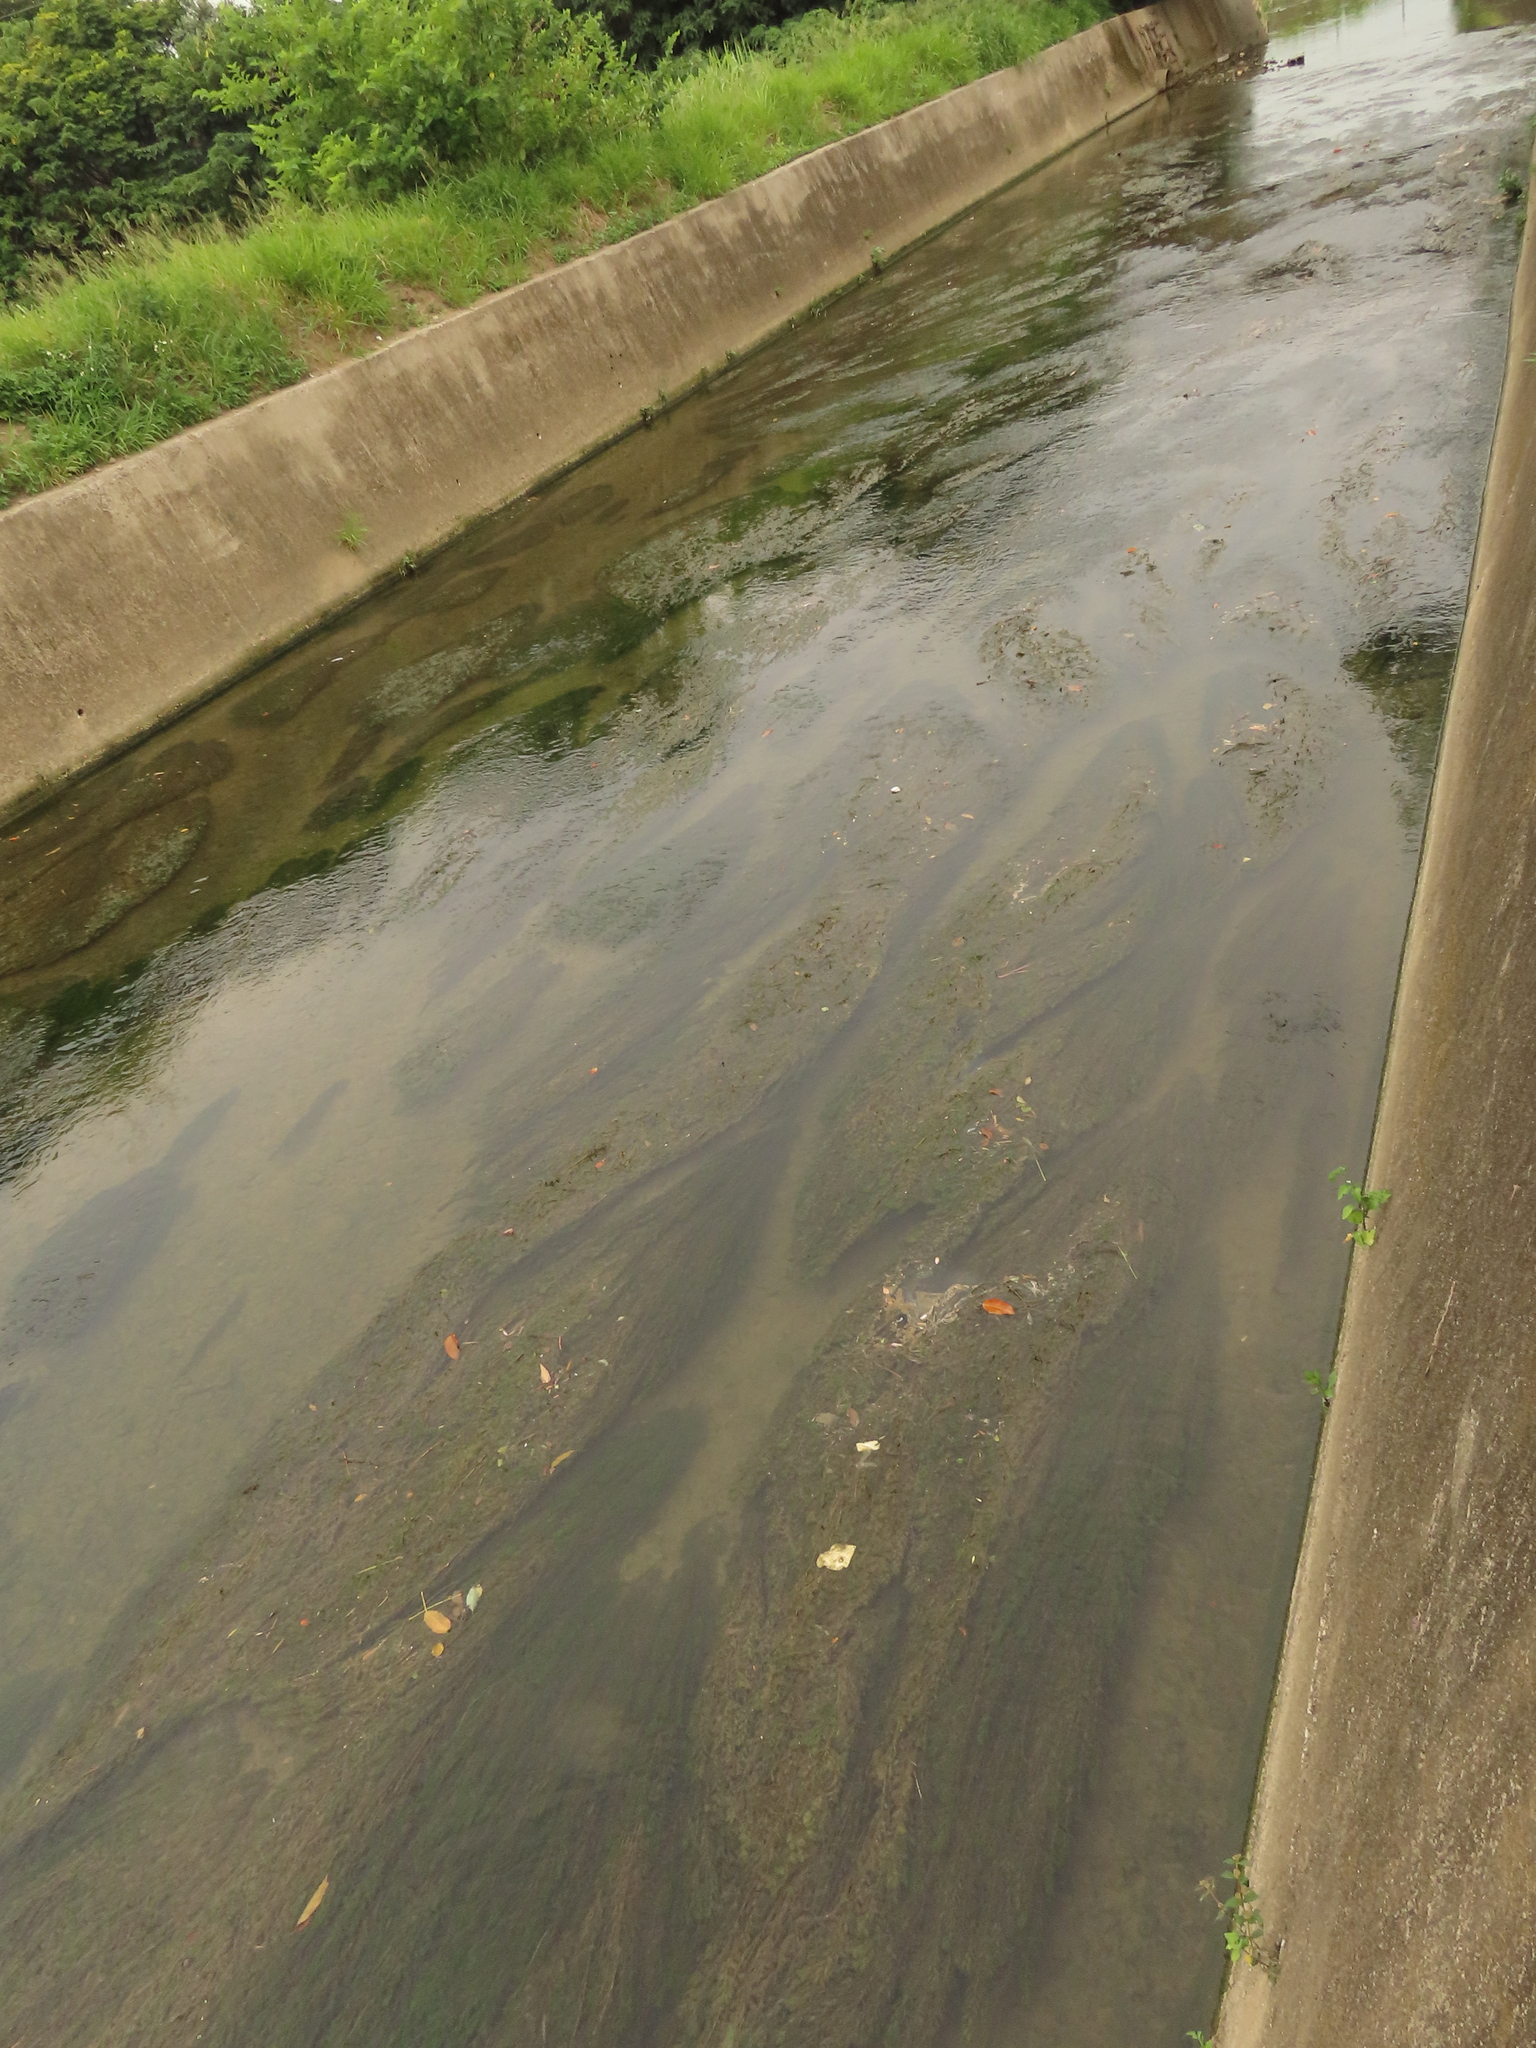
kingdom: Plantae
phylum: Tracheophyta
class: Magnoliopsida
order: Saxifragales
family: Haloragaceae
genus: Myriophyllum
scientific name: Myriophyllum spicatum
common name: Spiked water-milfoil
